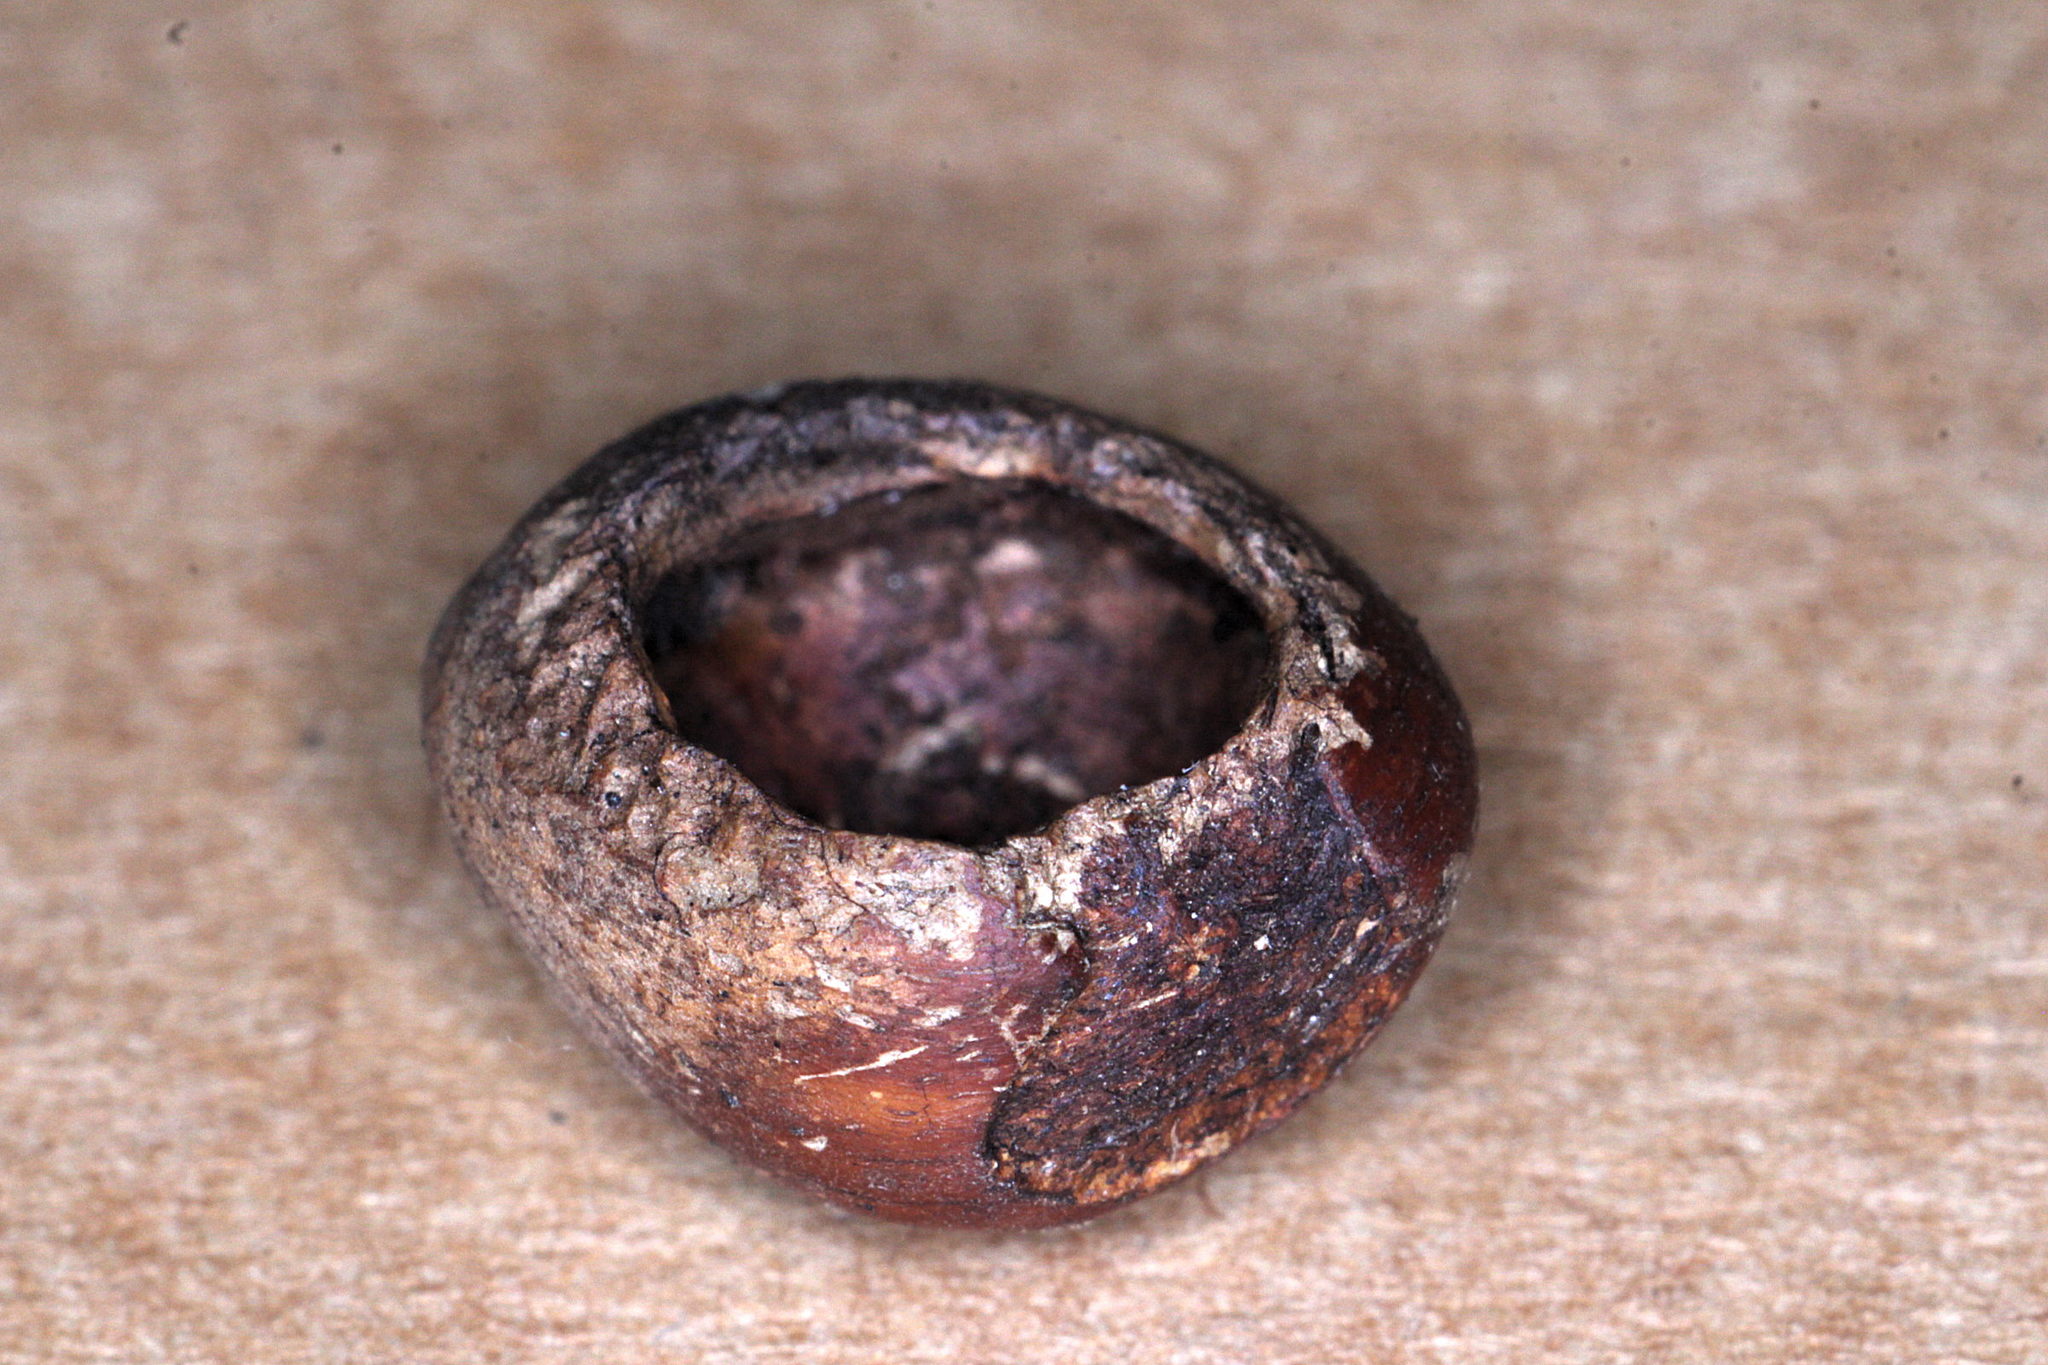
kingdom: Animalia
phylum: Chordata
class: Mammalia
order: Rodentia
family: Gliridae
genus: Muscardinus
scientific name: Muscardinus avellanarius
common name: Hazel dormouse
